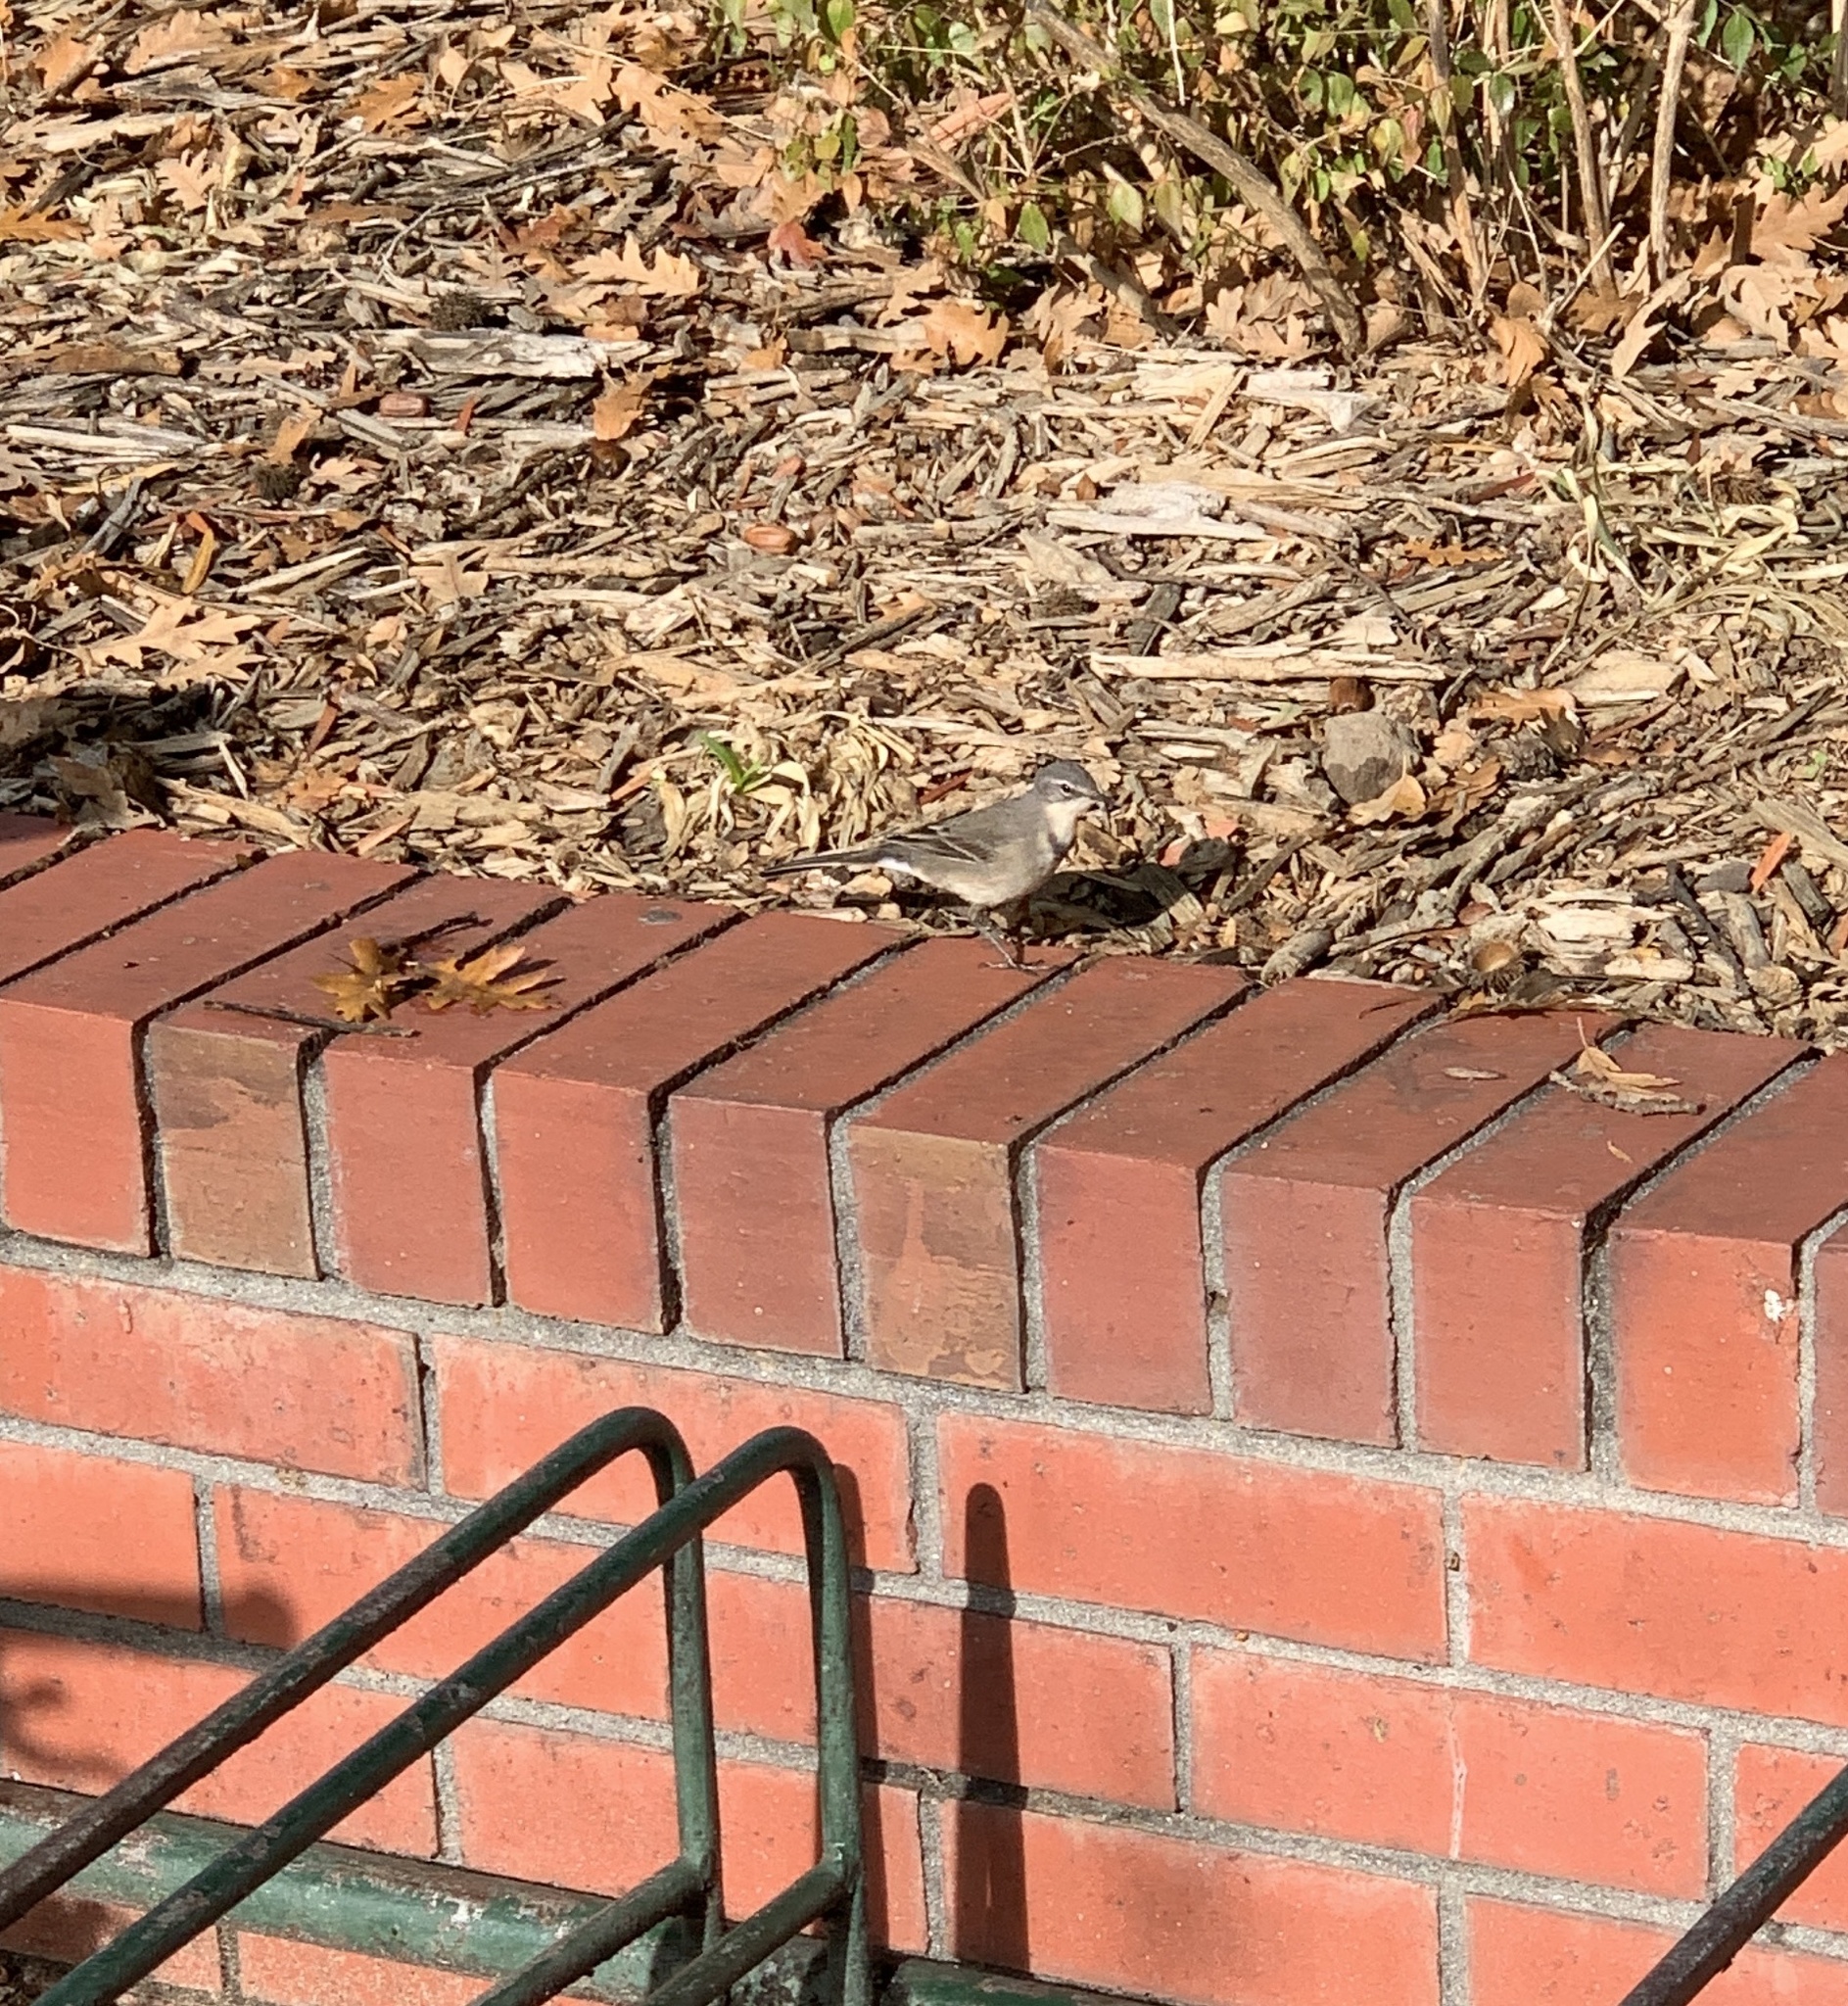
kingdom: Animalia
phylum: Chordata
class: Aves
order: Passeriformes
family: Motacillidae
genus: Motacilla
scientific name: Motacilla capensis
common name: Cape wagtail
